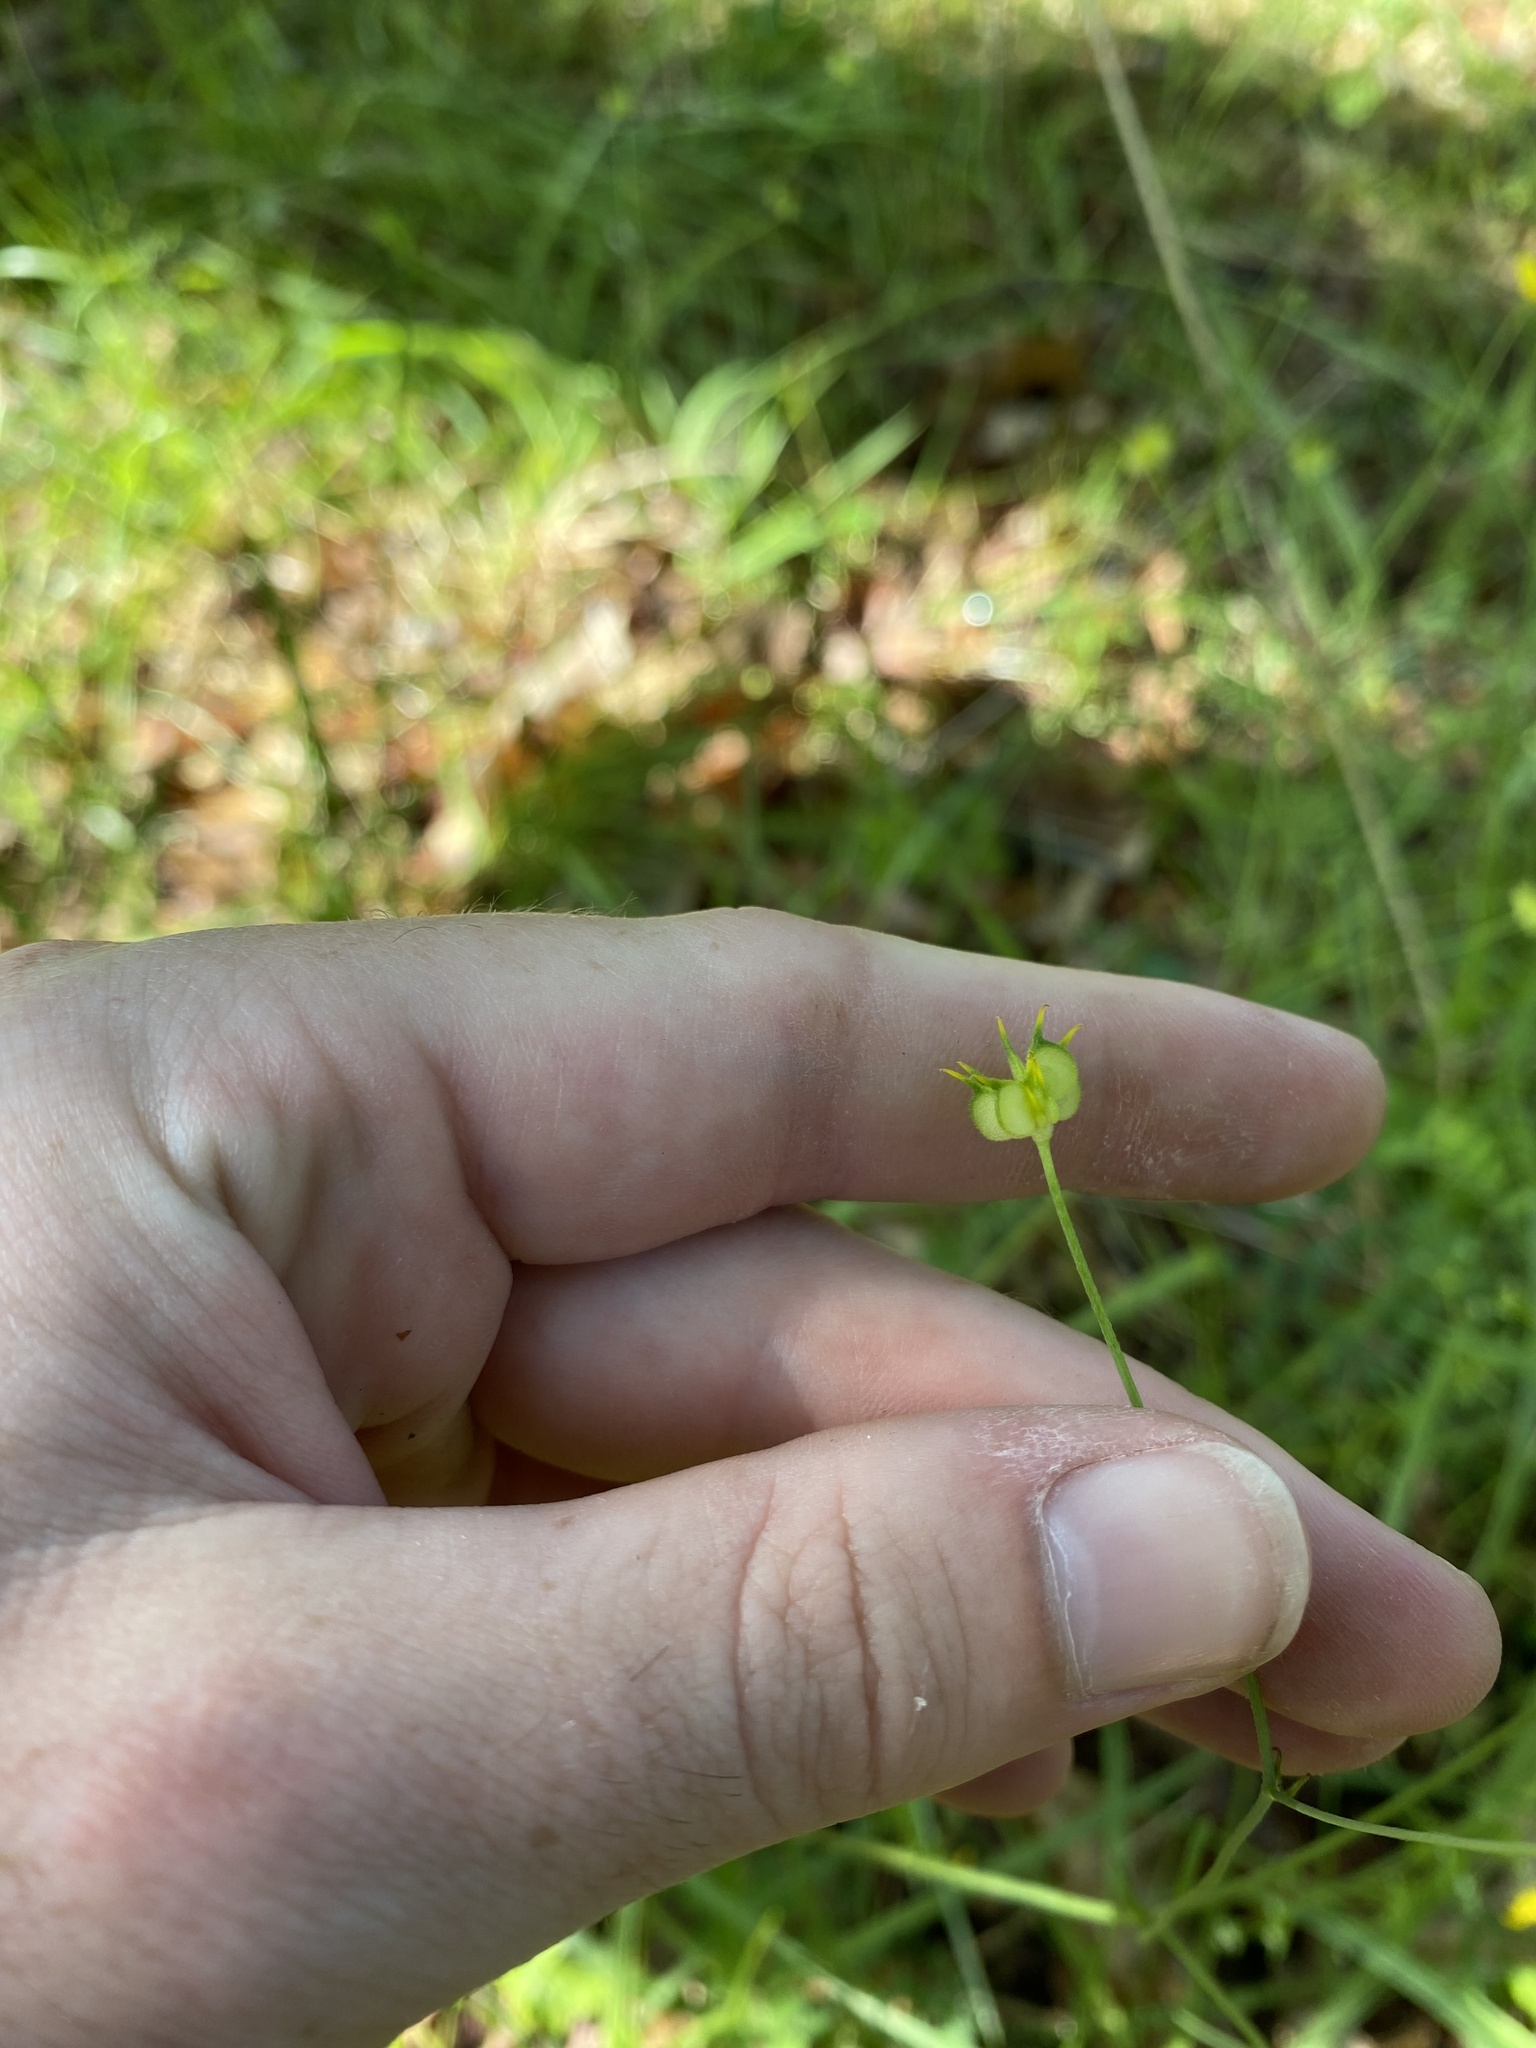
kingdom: Plantae
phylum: Tracheophyta
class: Magnoliopsida
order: Ranunculales
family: Ranunculaceae
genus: Ranunculus
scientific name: Ranunculus occidentalis
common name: Western buttercup
